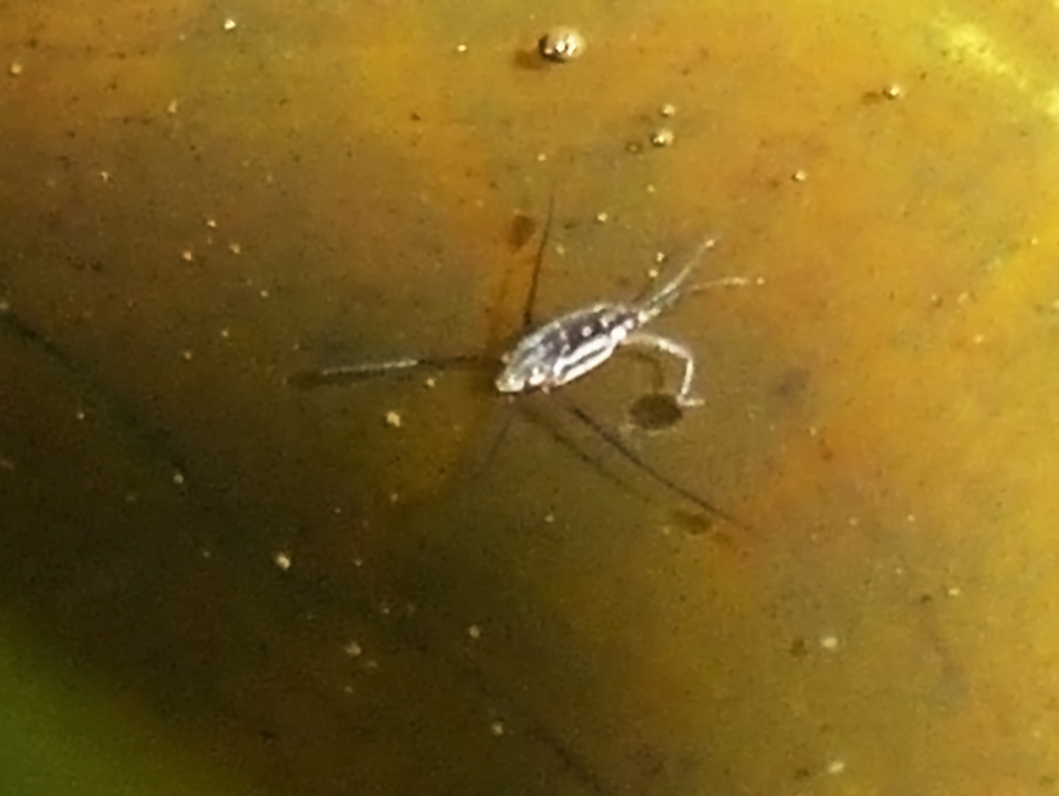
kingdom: Animalia
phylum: Arthropoda
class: Insecta
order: Hemiptera
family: Gerridae
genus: Trepobates
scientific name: Trepobates subnitidus
